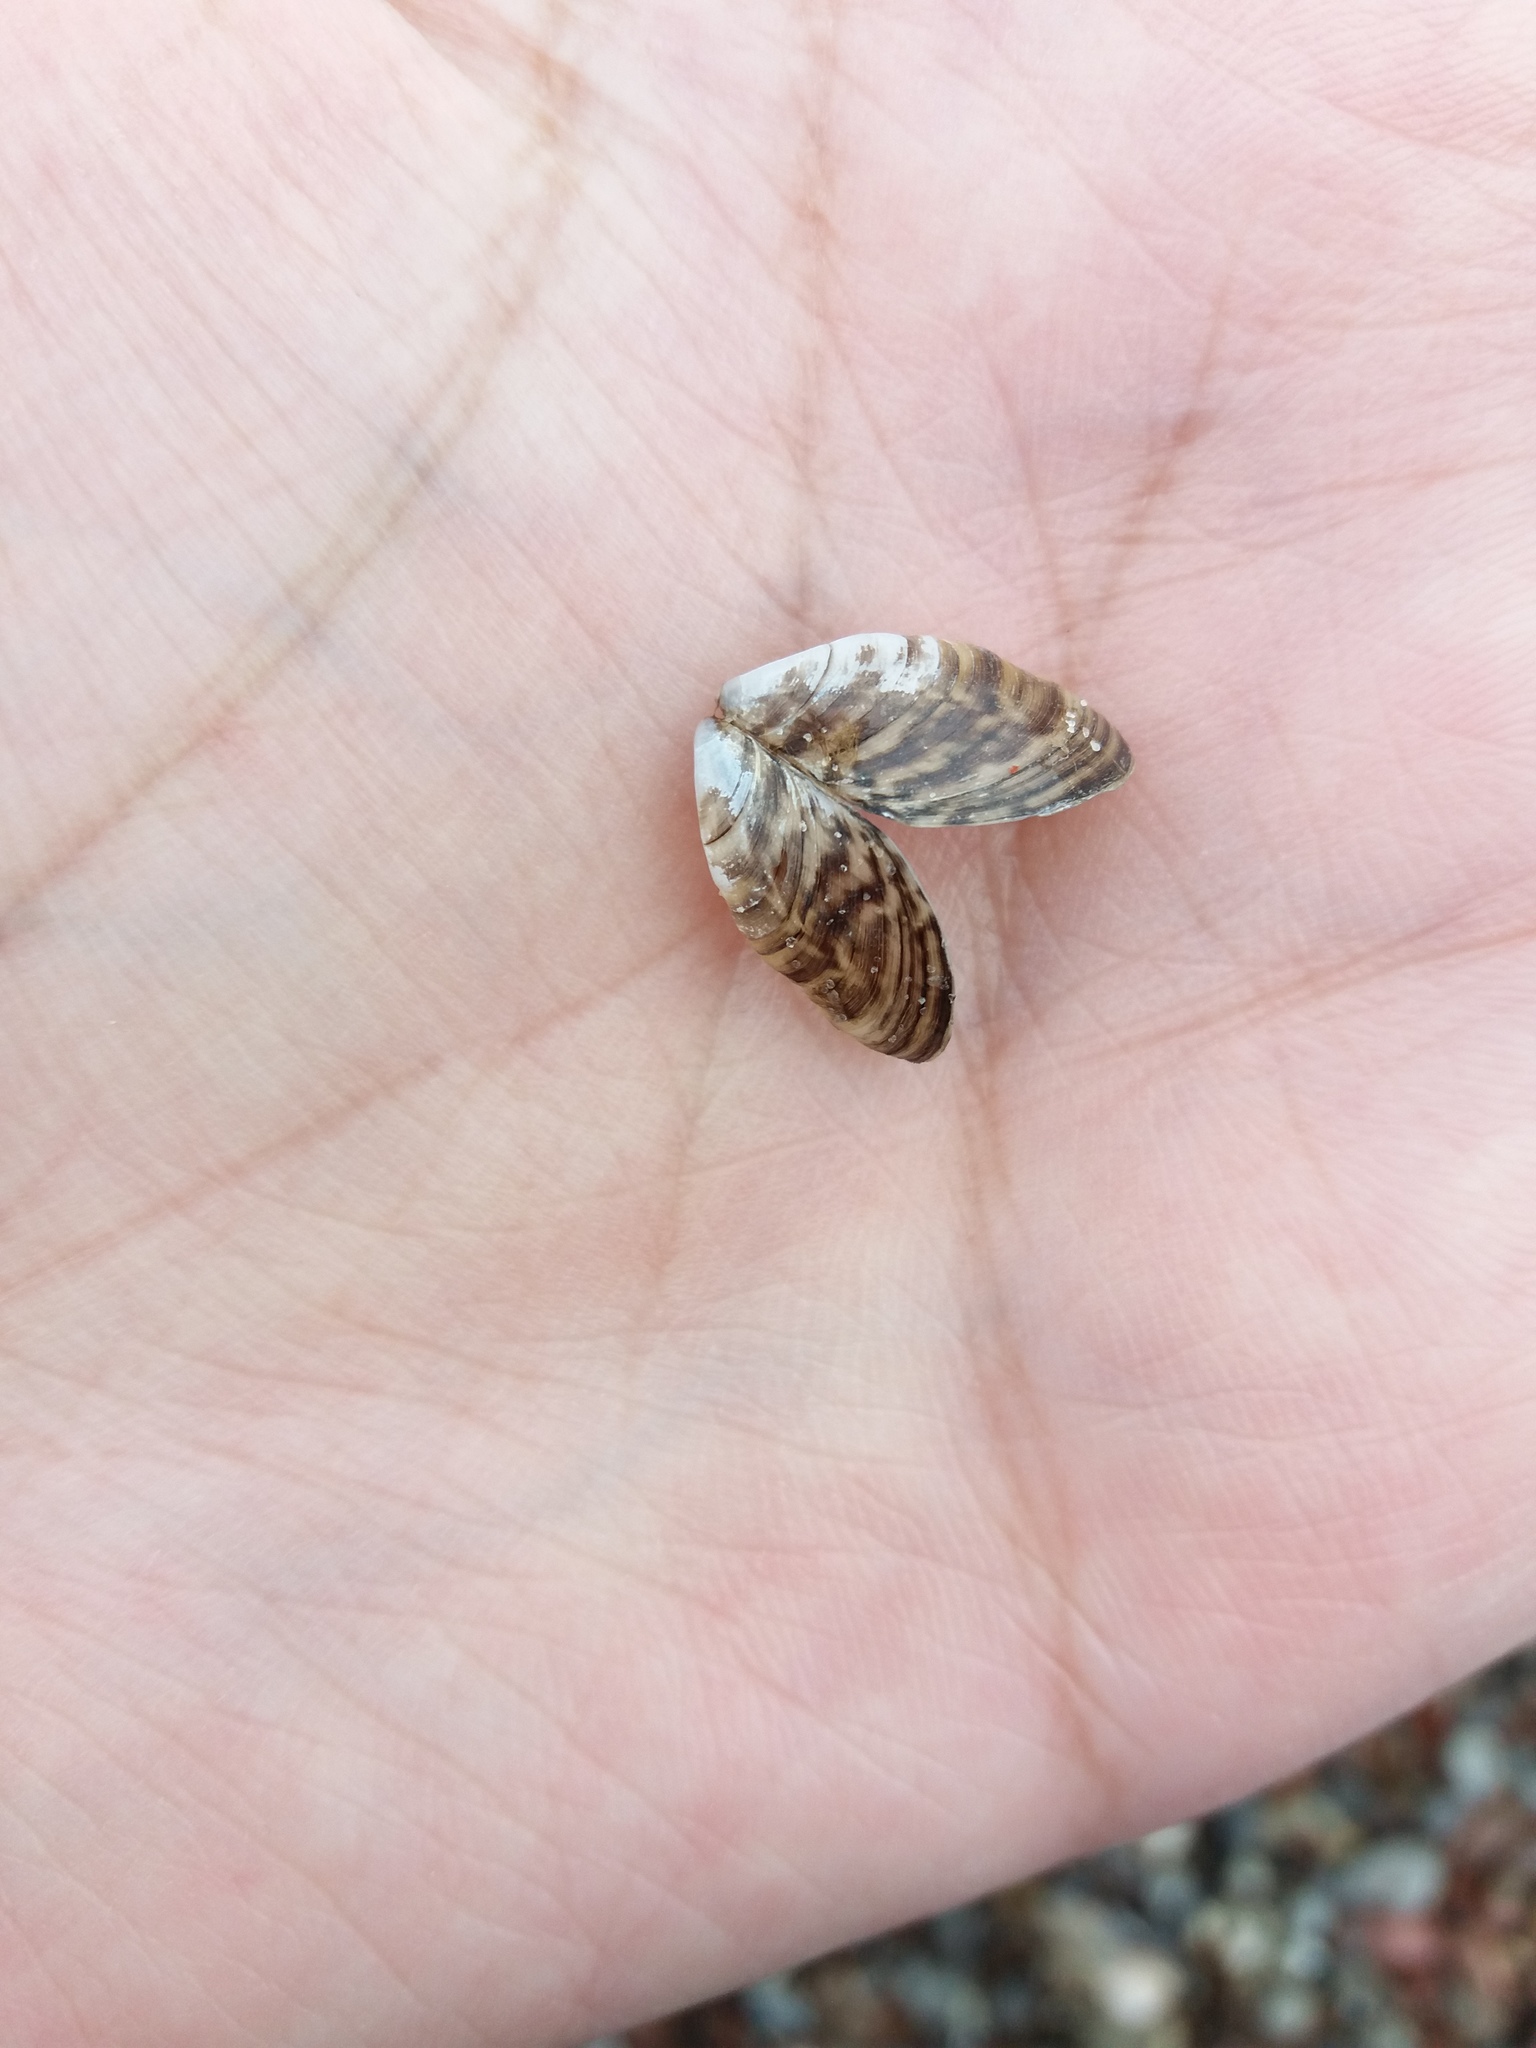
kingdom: Animalia
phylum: Mollusca
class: Bivalvia
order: Myida
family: Dreissenidae
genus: Dreissena
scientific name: Dreissena polymorpha
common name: Zebra mussel
